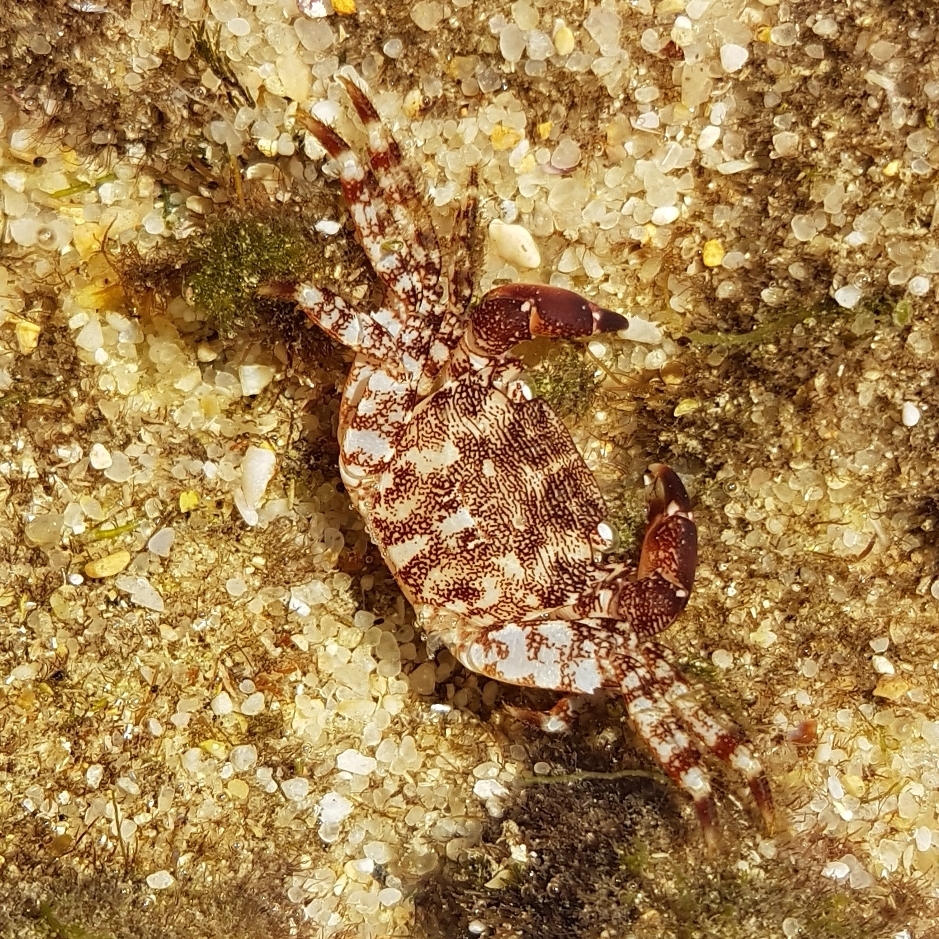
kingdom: Animalia
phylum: Arthropoda
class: Malacostraca
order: Decapoda
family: Grapsidae
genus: Pachygrapsus
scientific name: Pachygrapsus marmoratus
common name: Marbled rock crab
